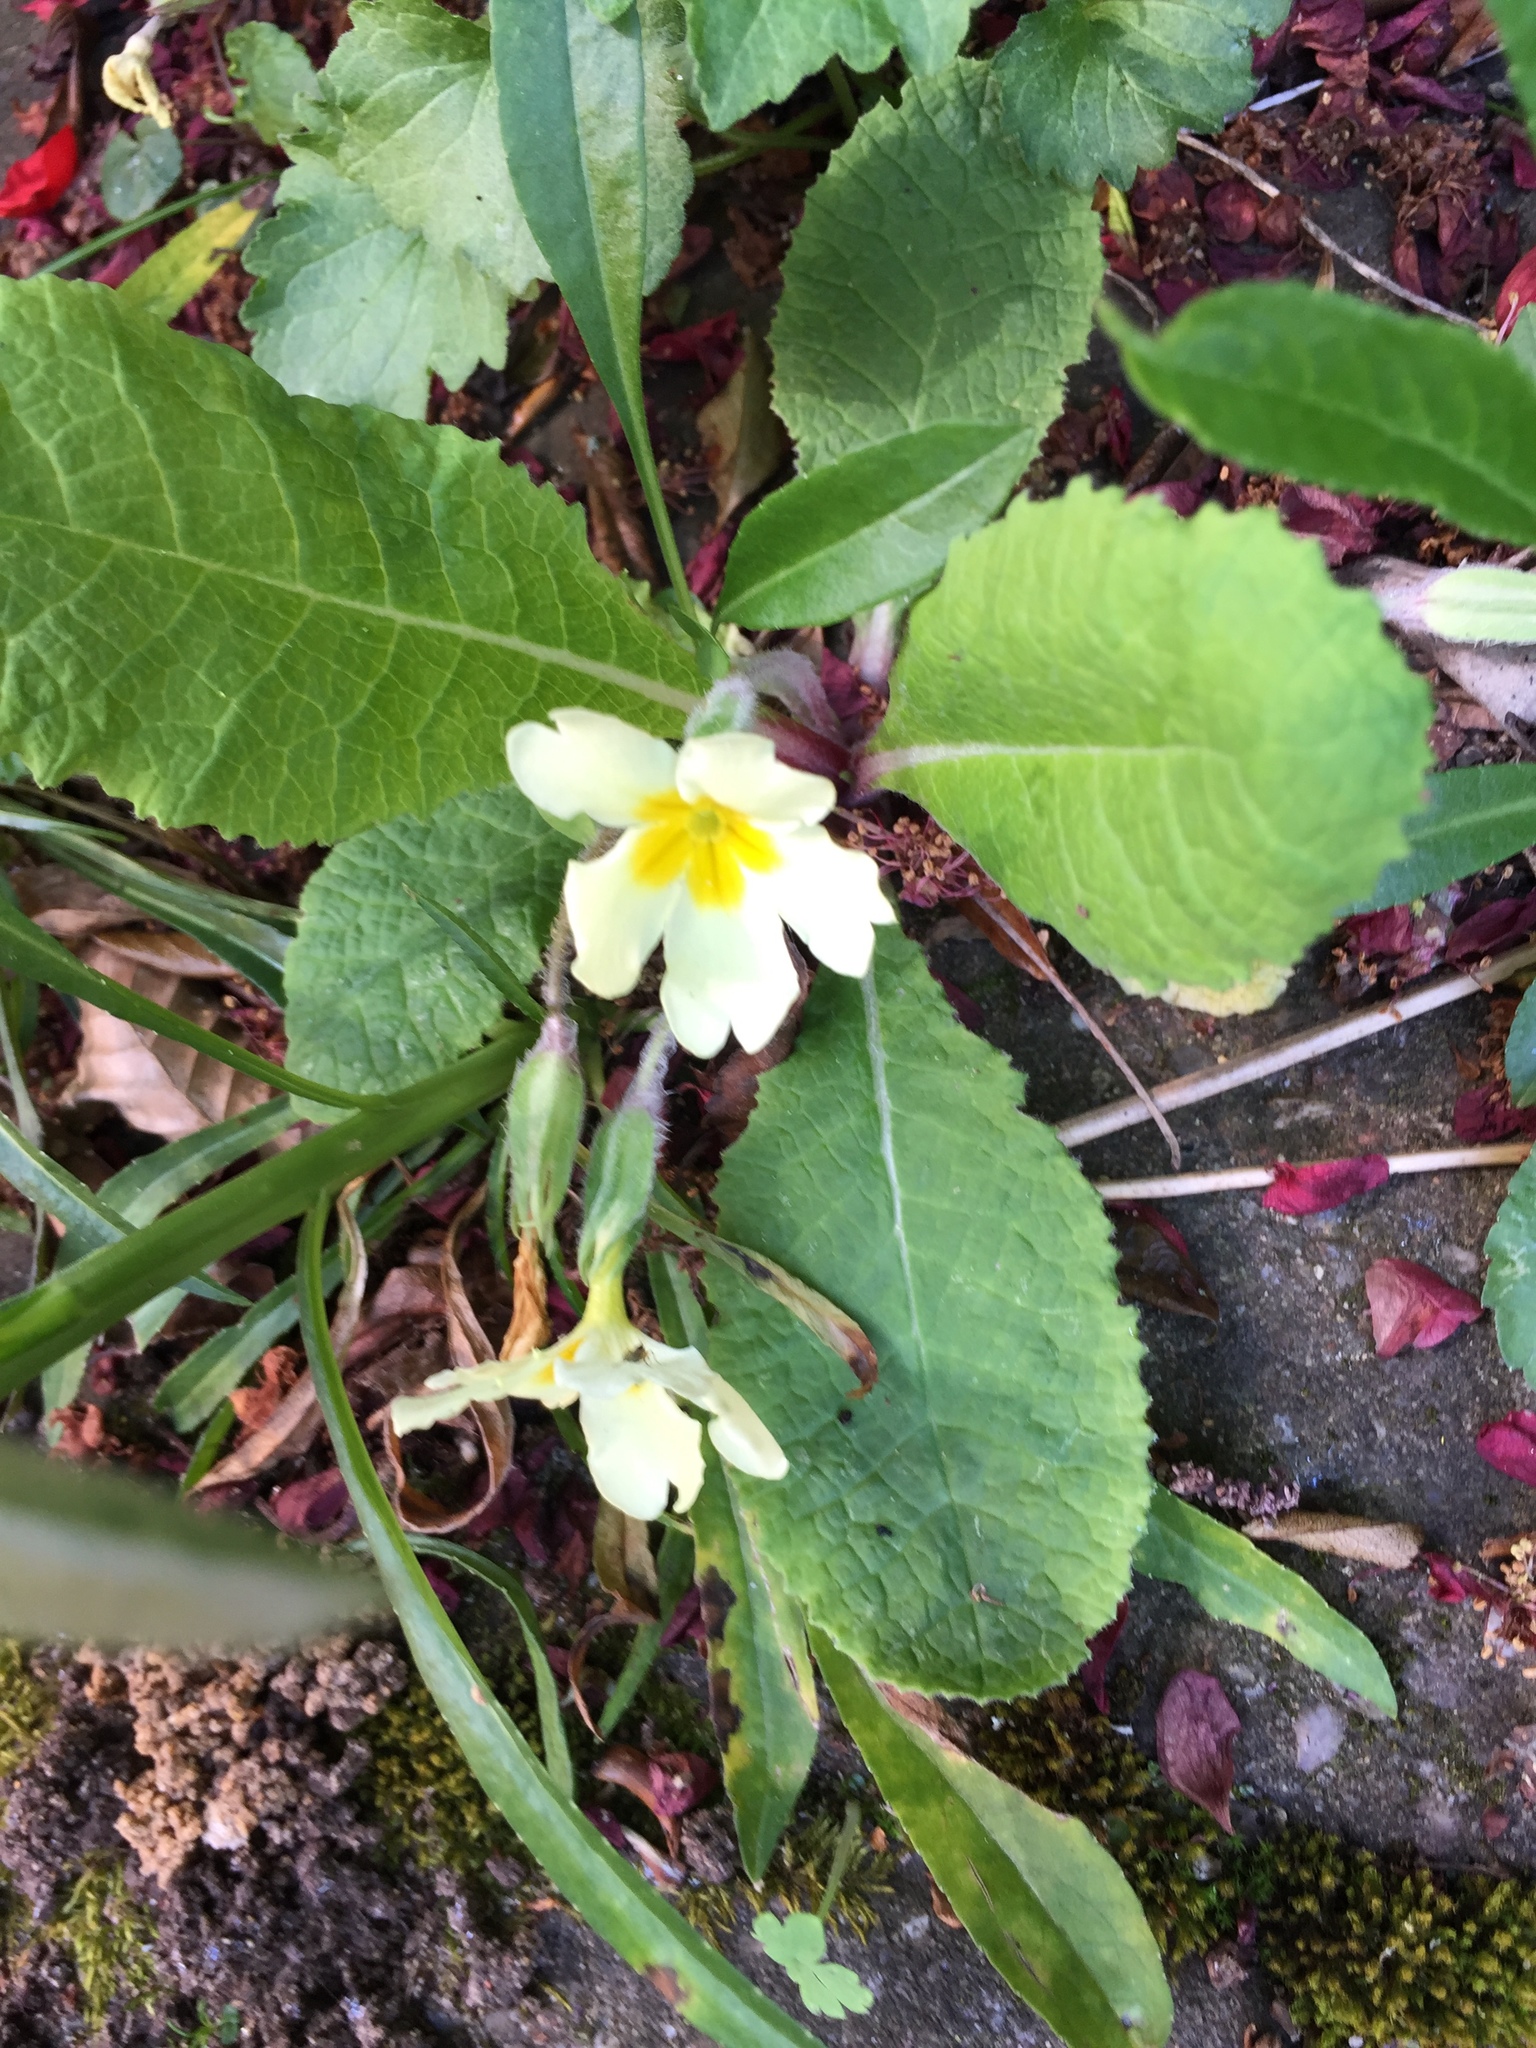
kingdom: Plantae
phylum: Tracheophyta
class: Magnoliopsida
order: Ericales
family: Primulaceae
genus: Primula
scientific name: Primula vulgaris
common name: Primrose
